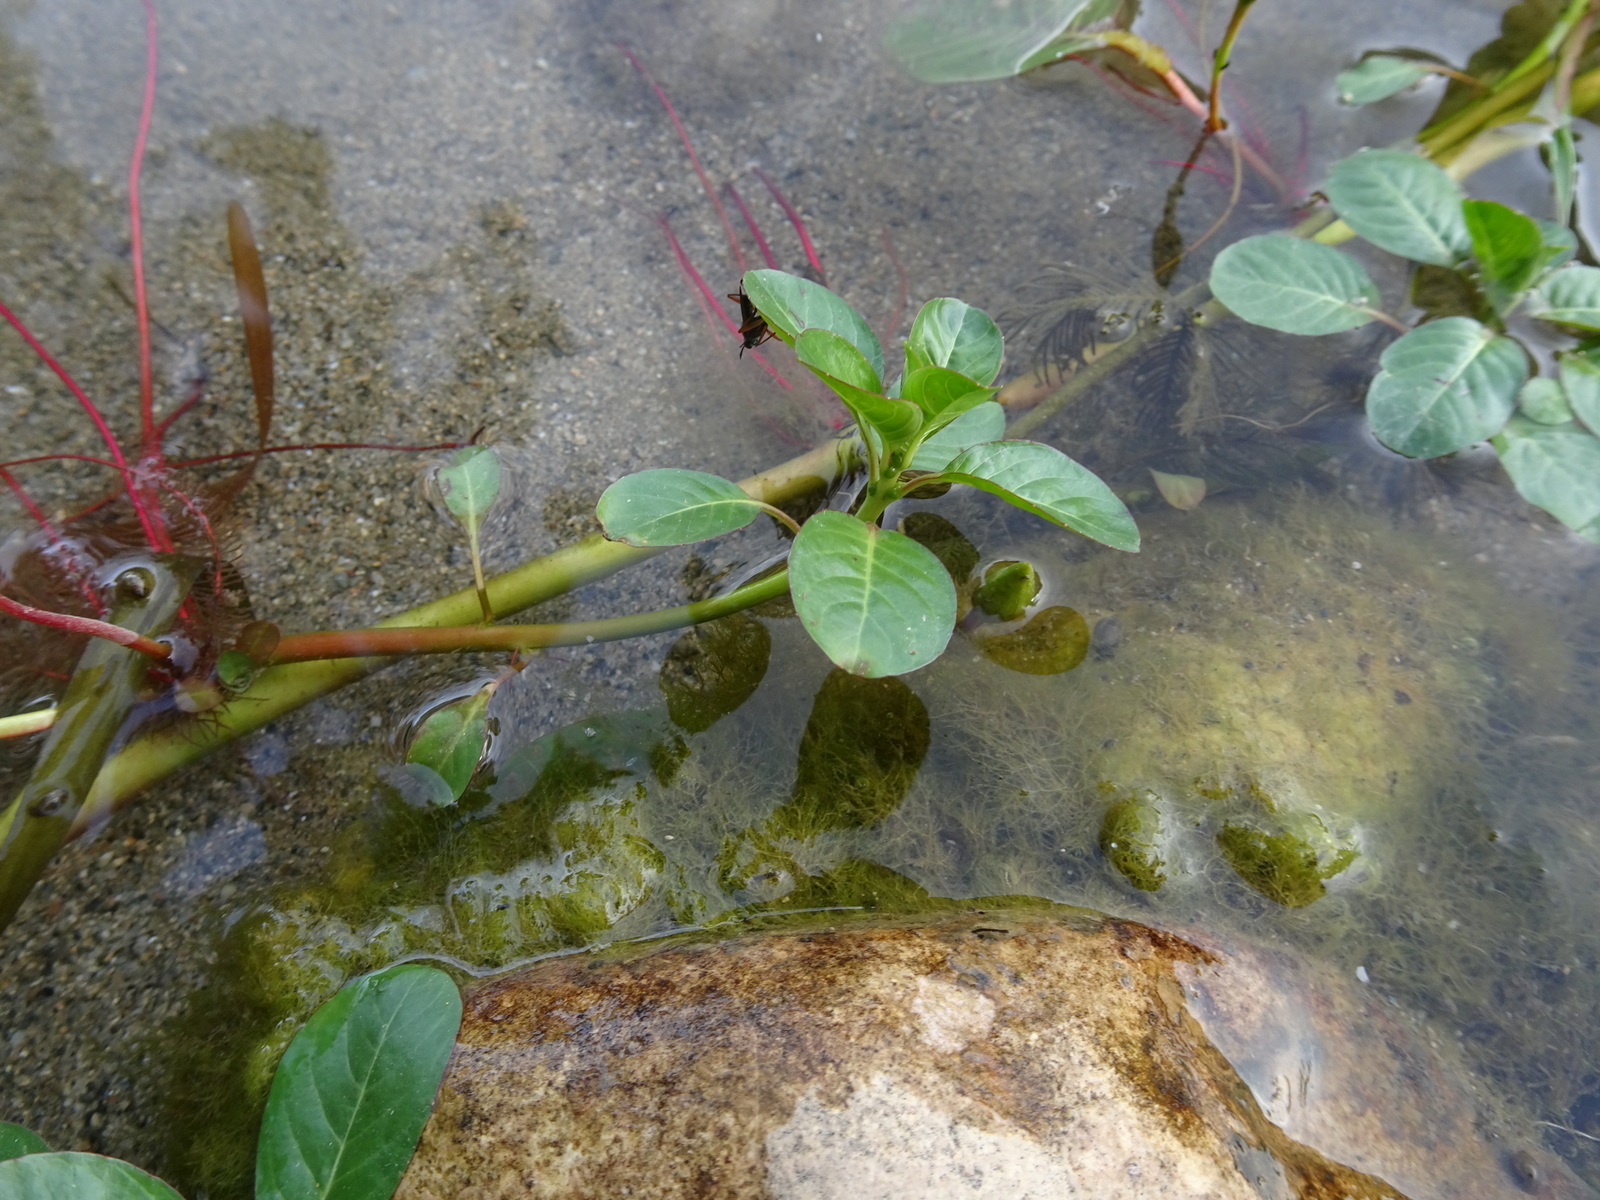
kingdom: Plantae
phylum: Tracheophyta
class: Magnoliopsida
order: Myrtales
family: Onagraceae
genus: Ludwigia
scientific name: Ludwigia peploides
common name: Floating primrose-willow
